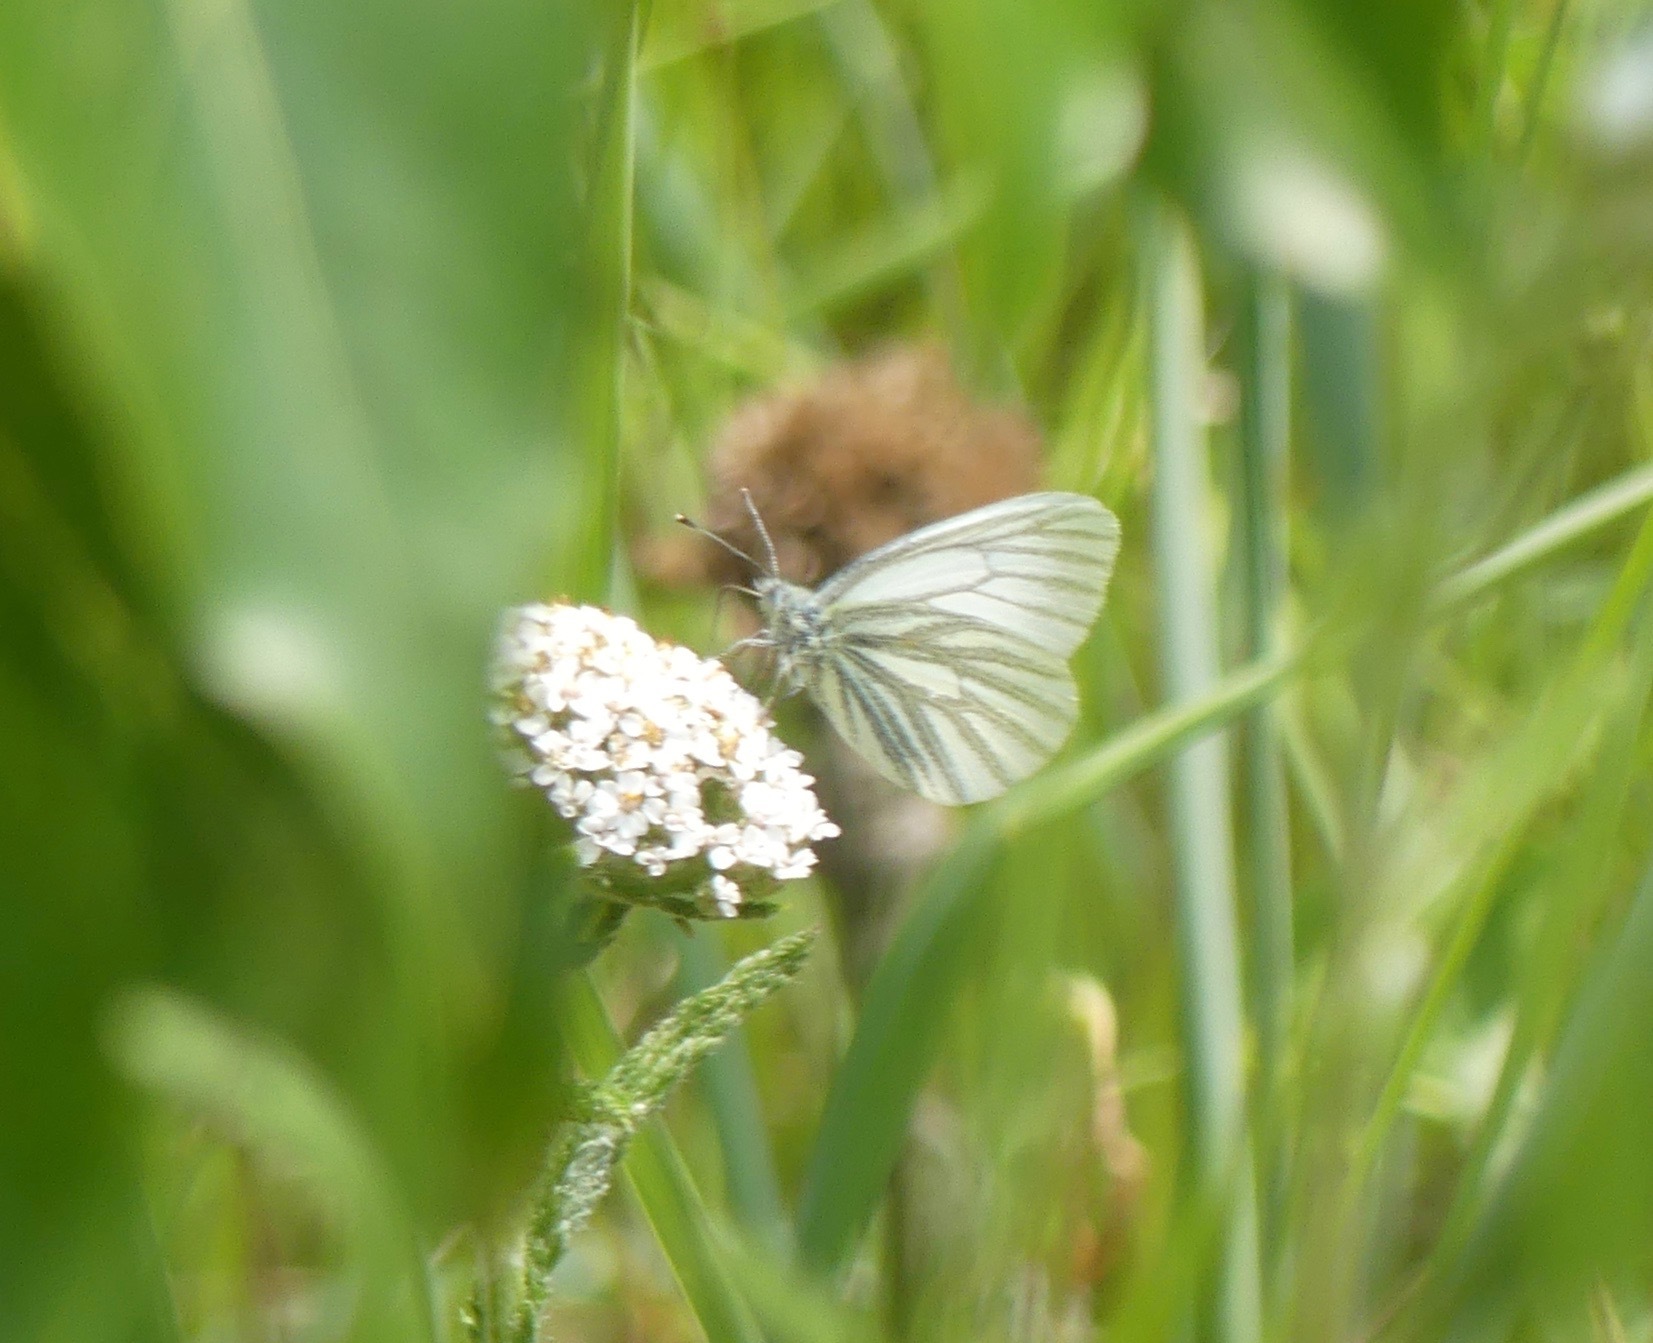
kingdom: Animalia
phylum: Arthropoda
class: Insecta
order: Lepidoptera
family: Pieridae
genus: Pieris
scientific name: Pieris marginalis
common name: Margined white
